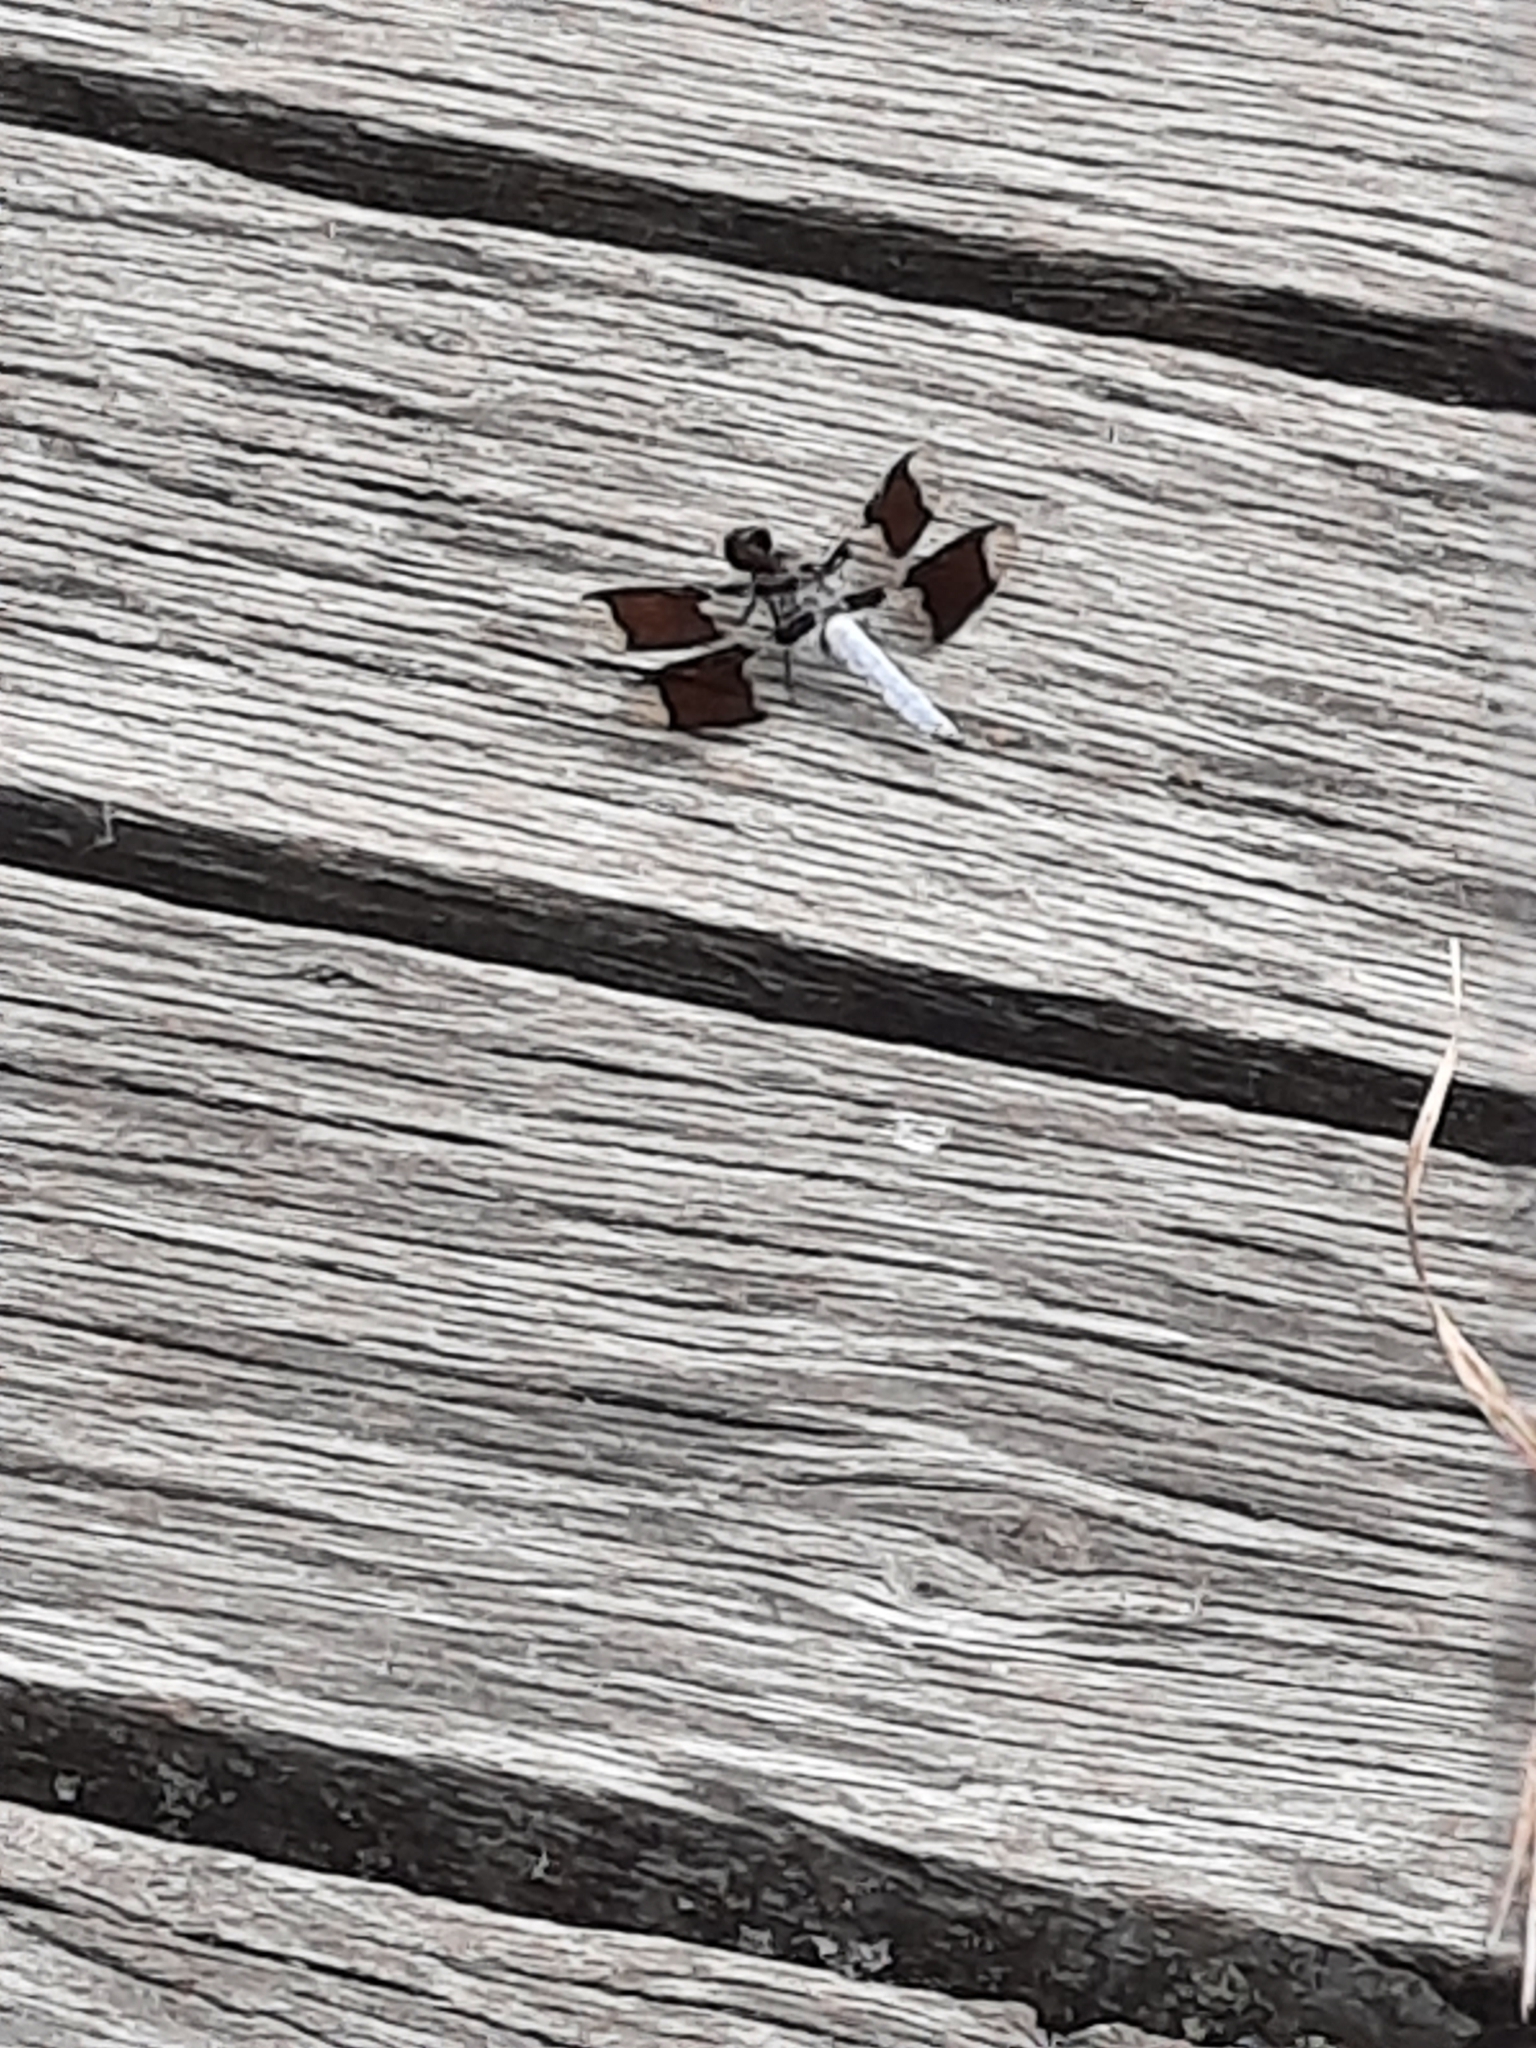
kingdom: Animalia
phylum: Arthropoda
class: Insecta
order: Odonata
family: Libellulidae
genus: Plathemis
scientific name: Plathemis lydia
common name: Common whitetail
